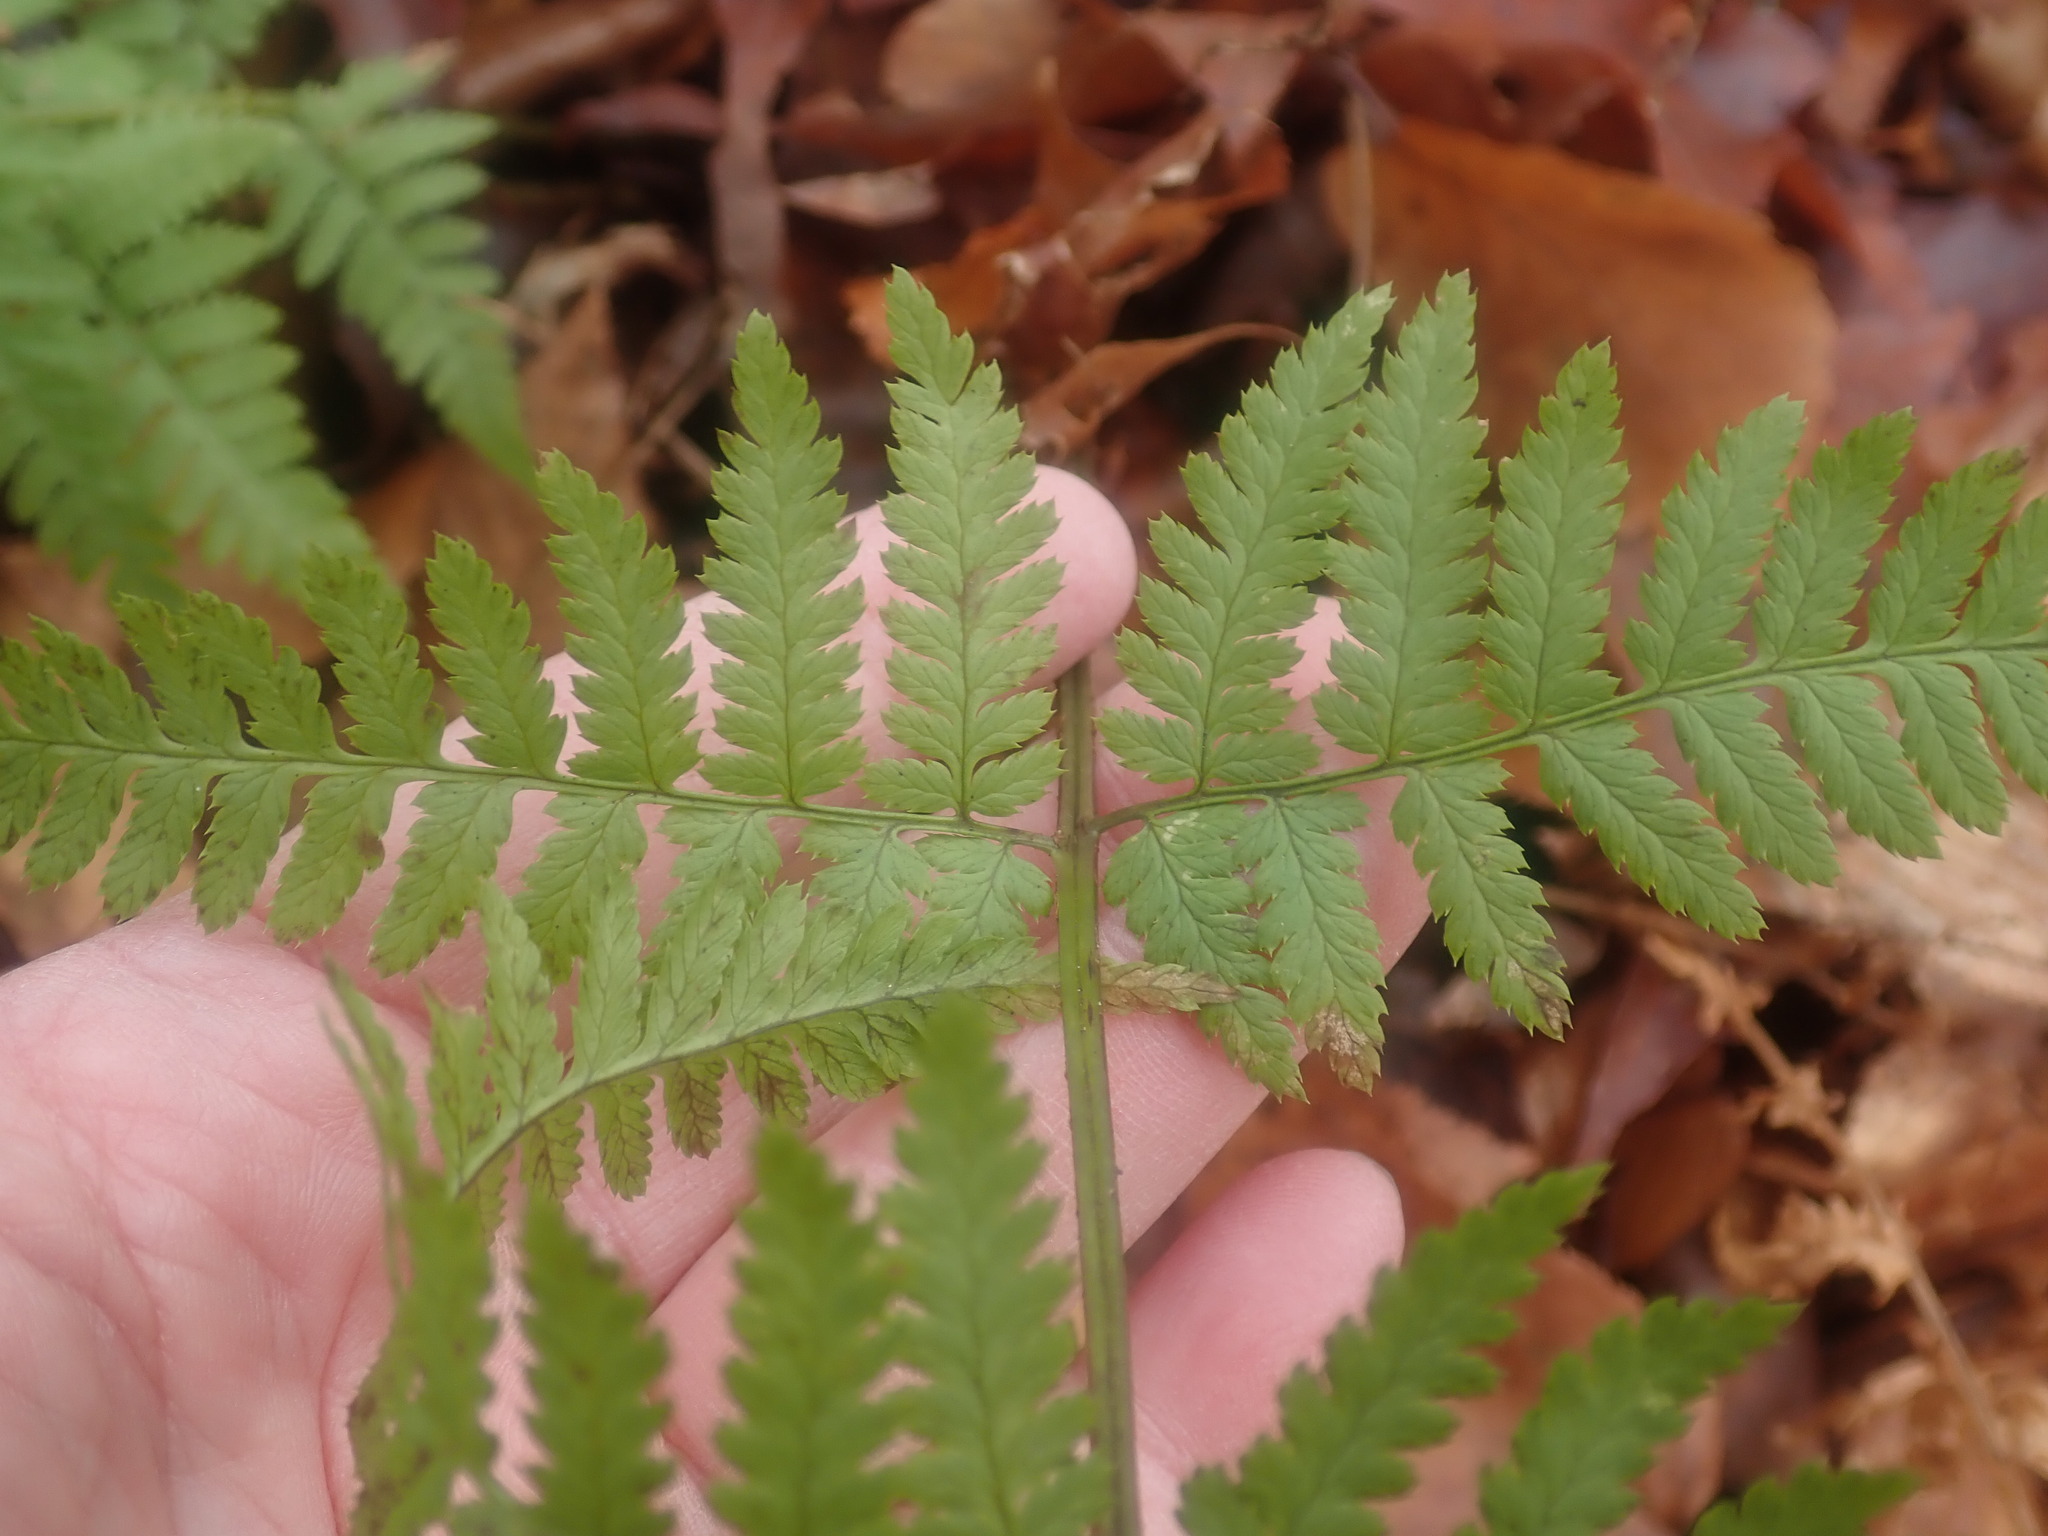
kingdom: Plantae
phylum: Tracheophyta
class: Polypodiopsida
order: Polypodiales
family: Dryopteridaceae
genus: Dryopteris
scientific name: Dryopteris carthusiana
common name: Narrow buckler-fern
